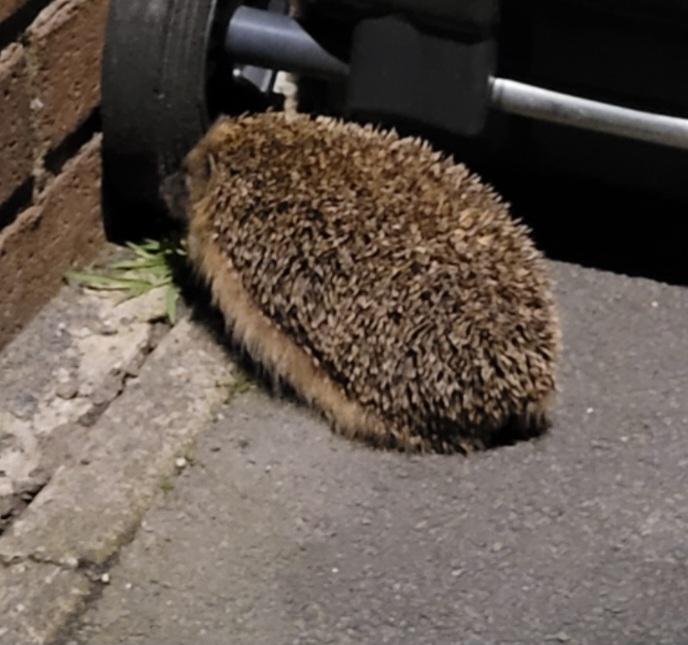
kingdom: Animalia
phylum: Chordata
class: Mammalia
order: Erinaceomorpha
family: Erinaceidae
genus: Erinaceus
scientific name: Erinaceus europaeus
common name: West european hedgehog
